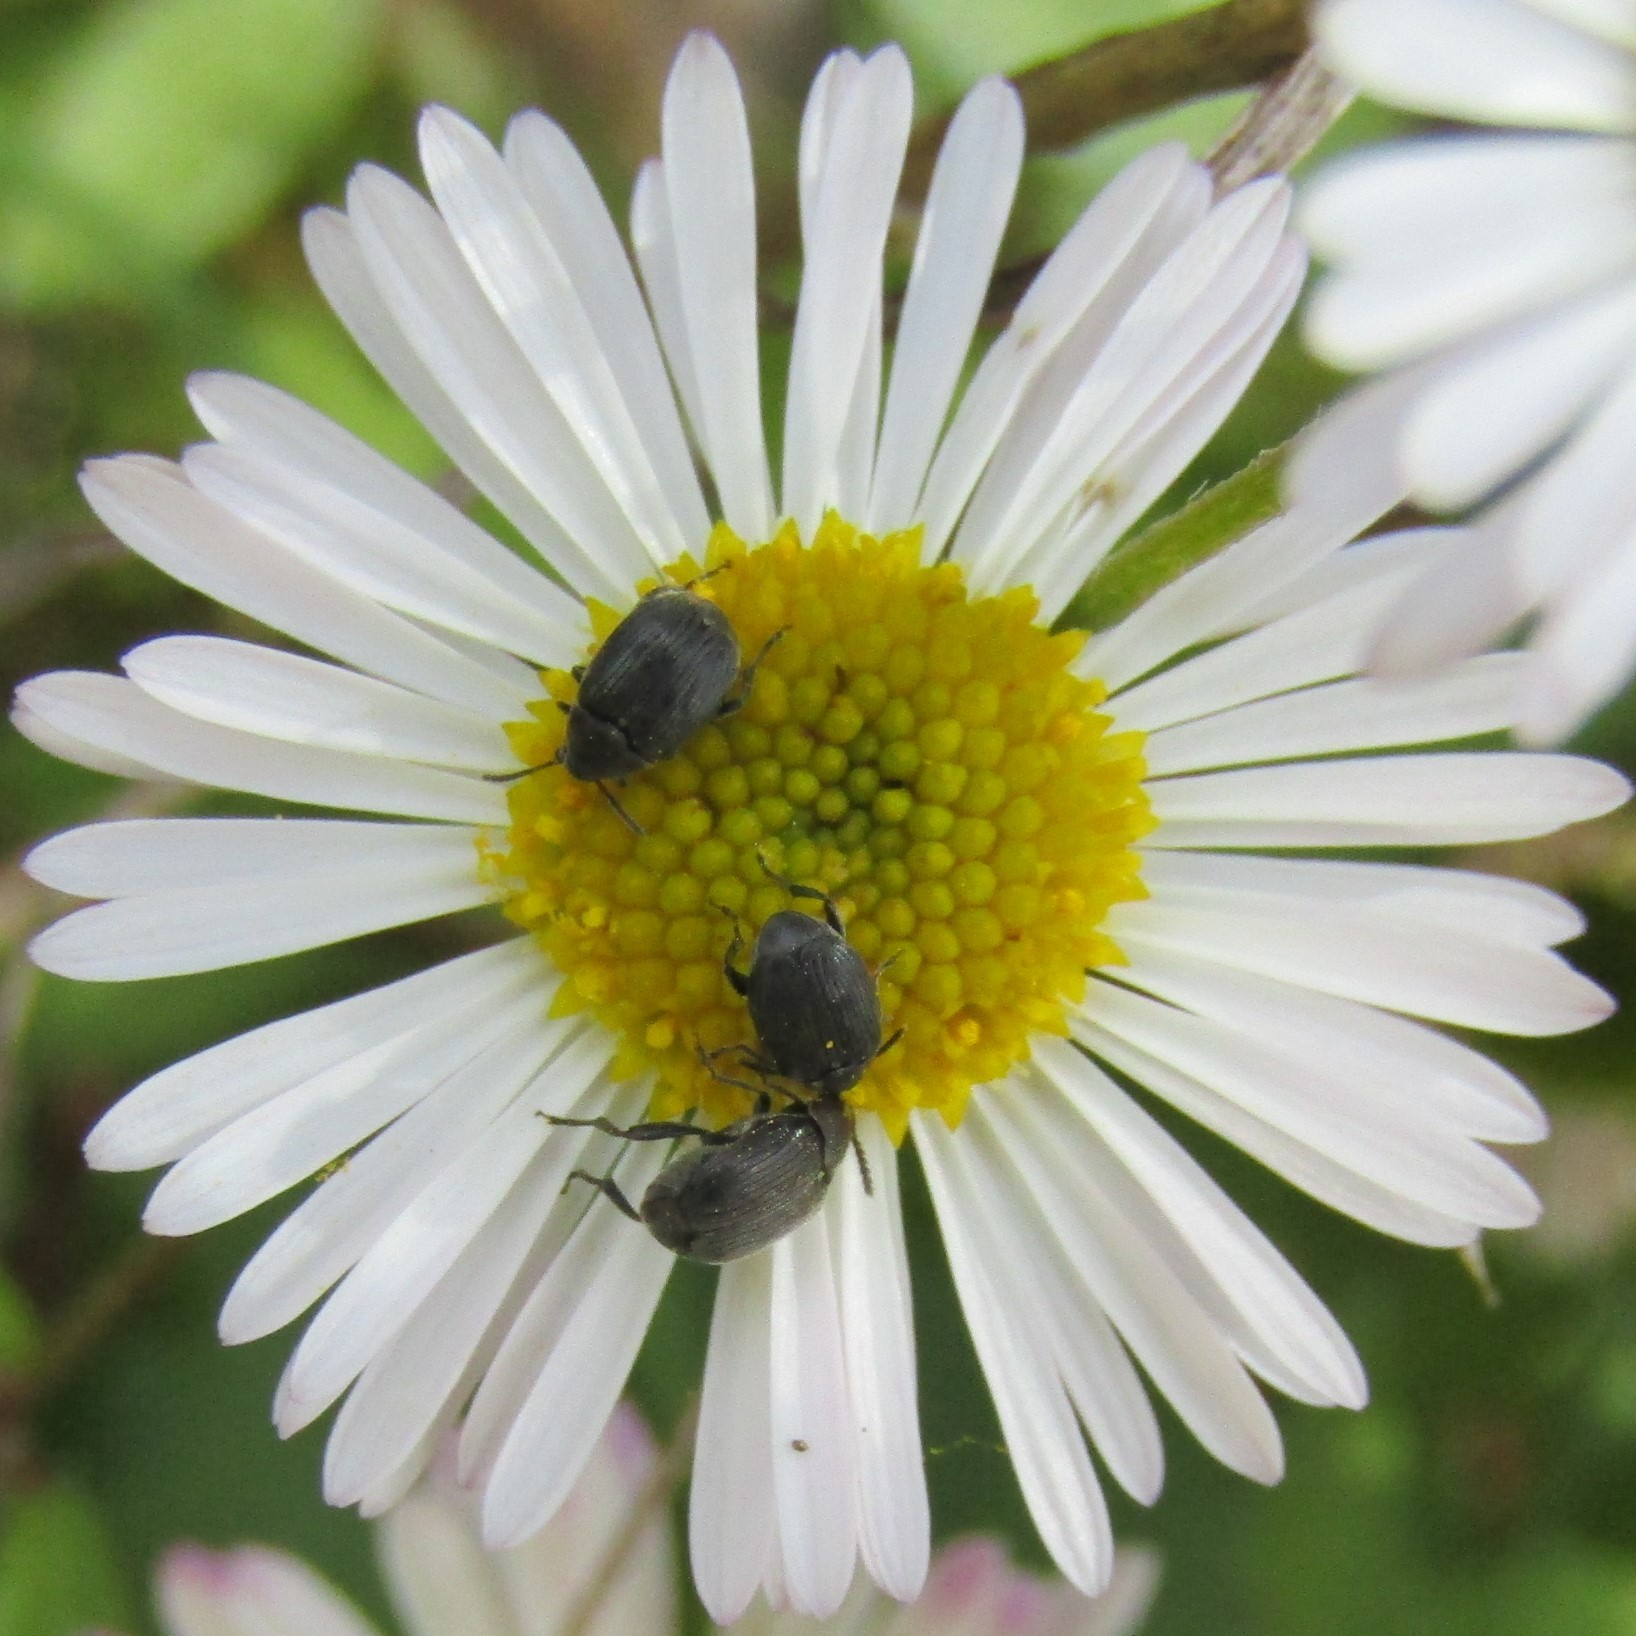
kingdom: Animalia
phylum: Arthropoda
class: Insecta
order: Coleoptera
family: Chrysomelidae
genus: Bruchidius
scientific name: Bruchidius villosus
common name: Scotch broom bruchid
